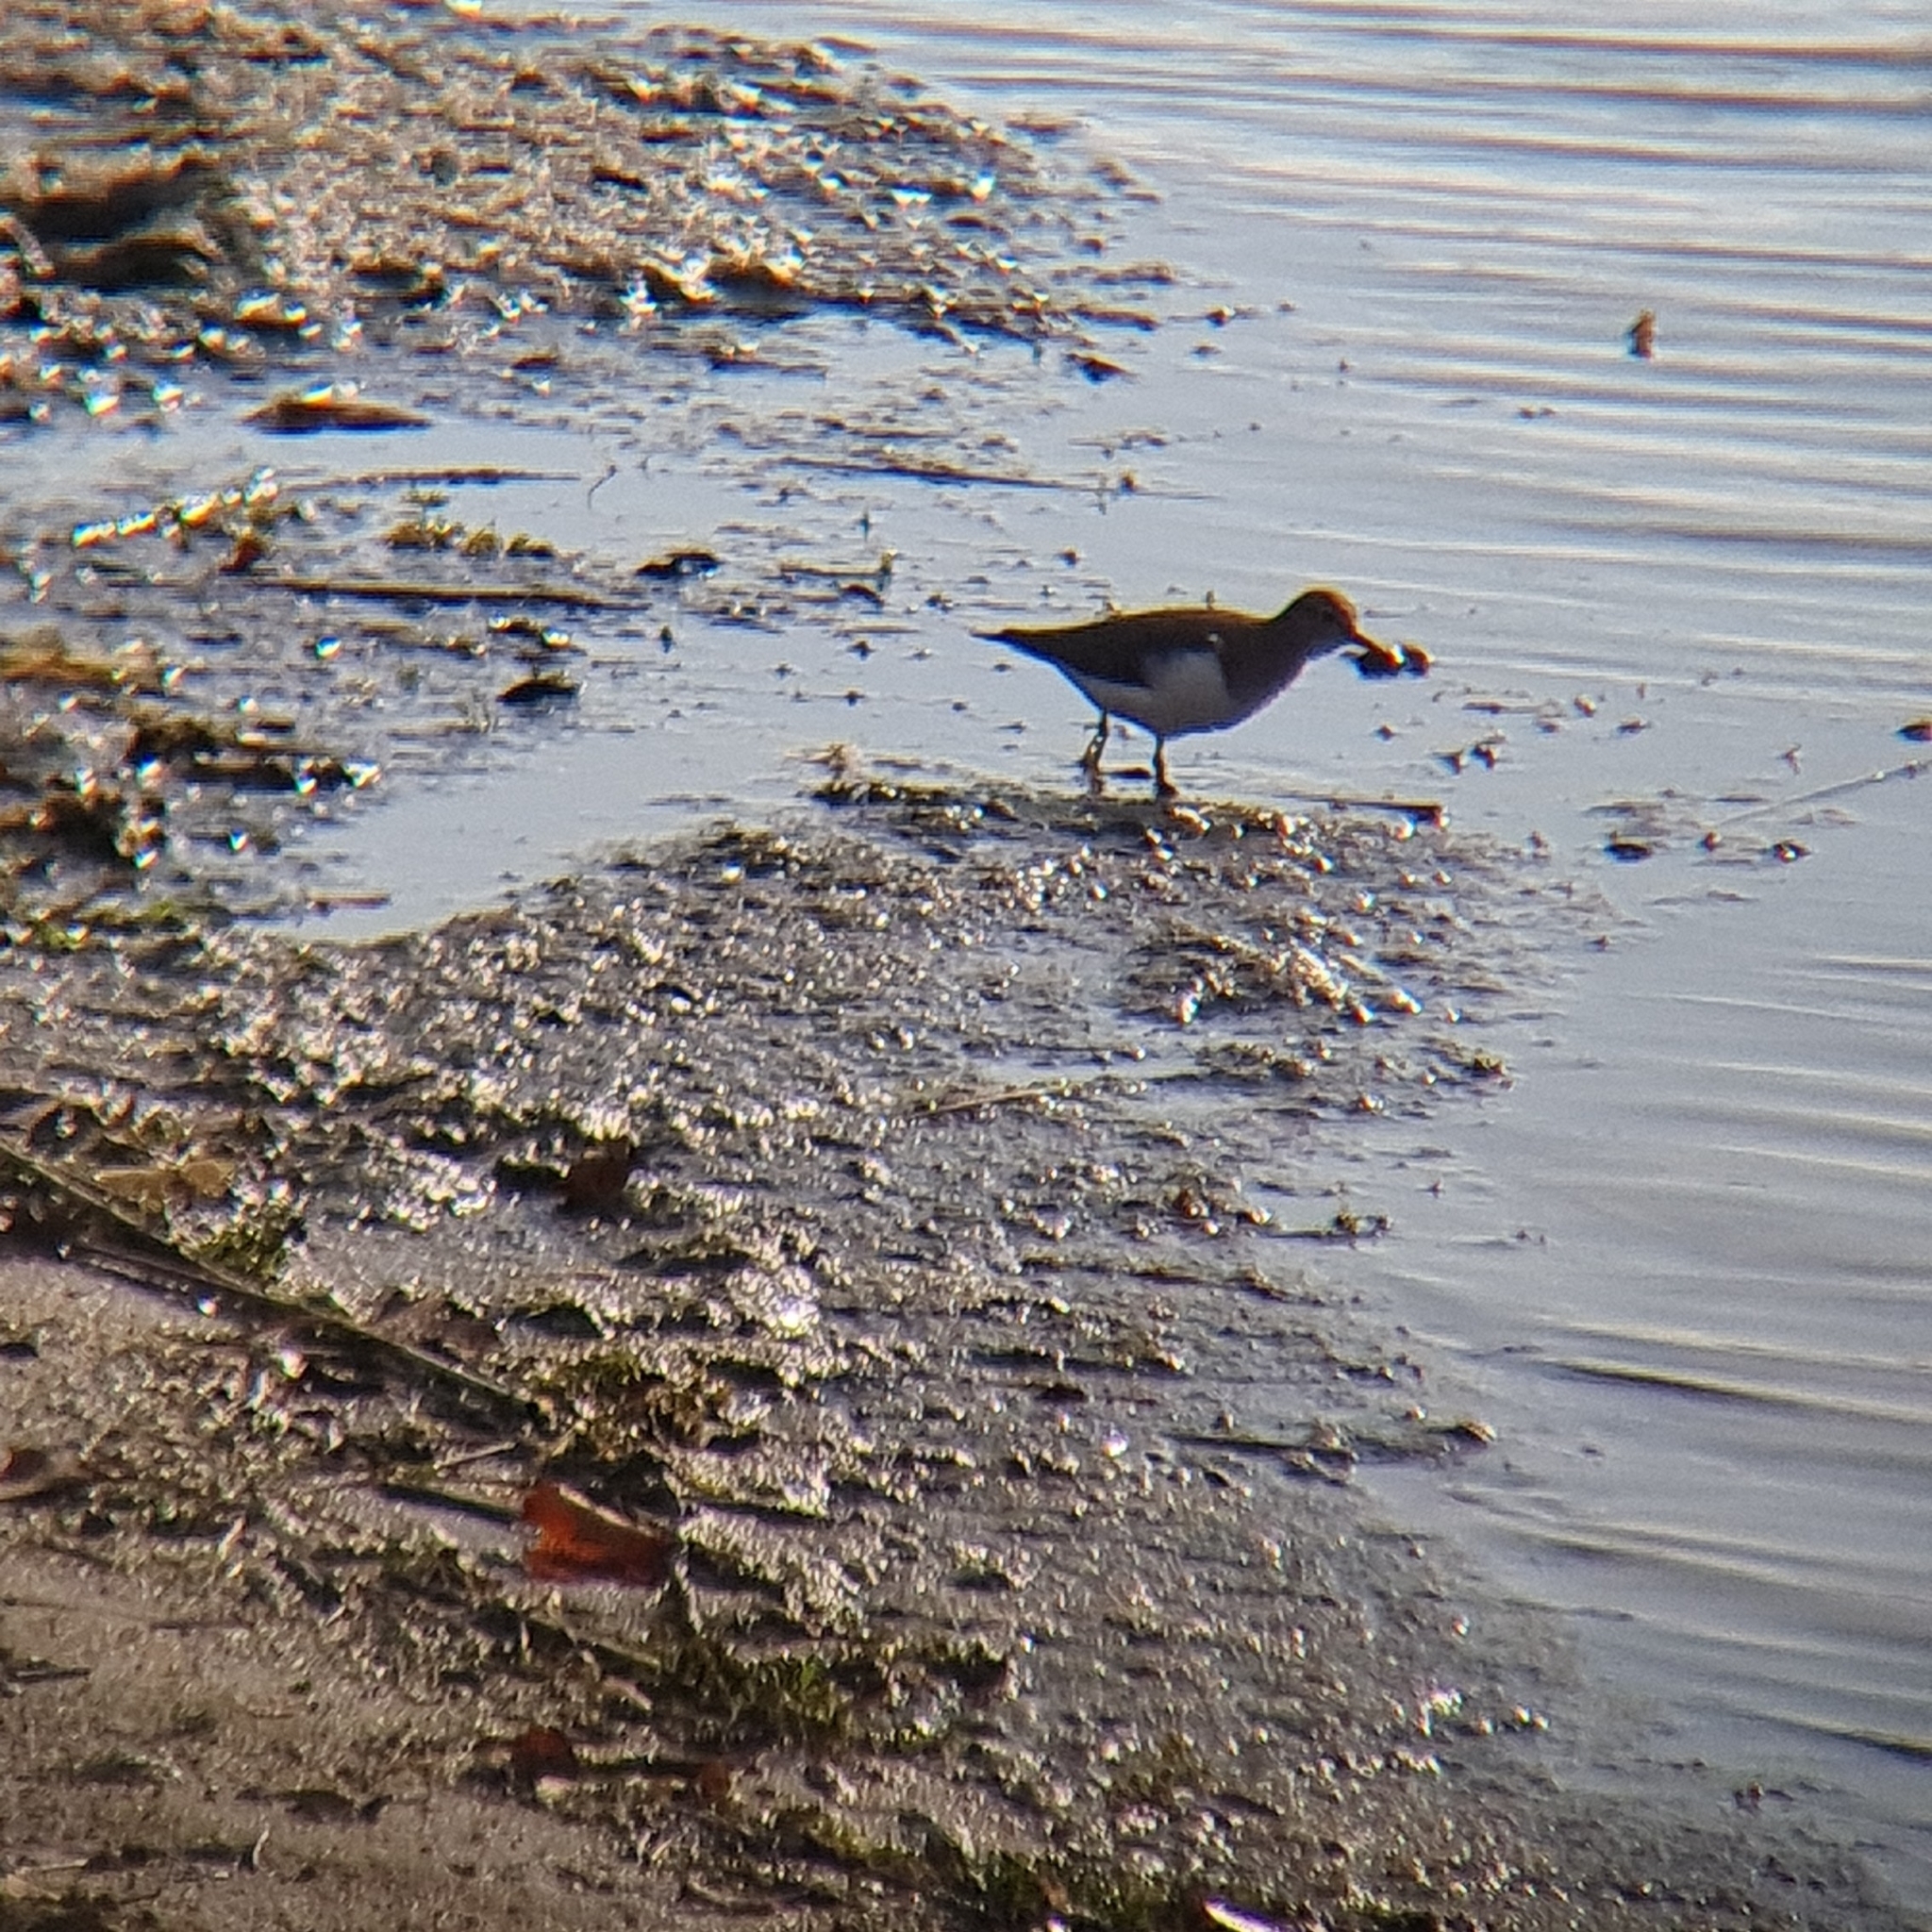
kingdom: Animalia
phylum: Chordata
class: Aves
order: Charadriiformes
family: Scolopacidae
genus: Actitis
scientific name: Actitis hypoleucos
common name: Common sandpiper
